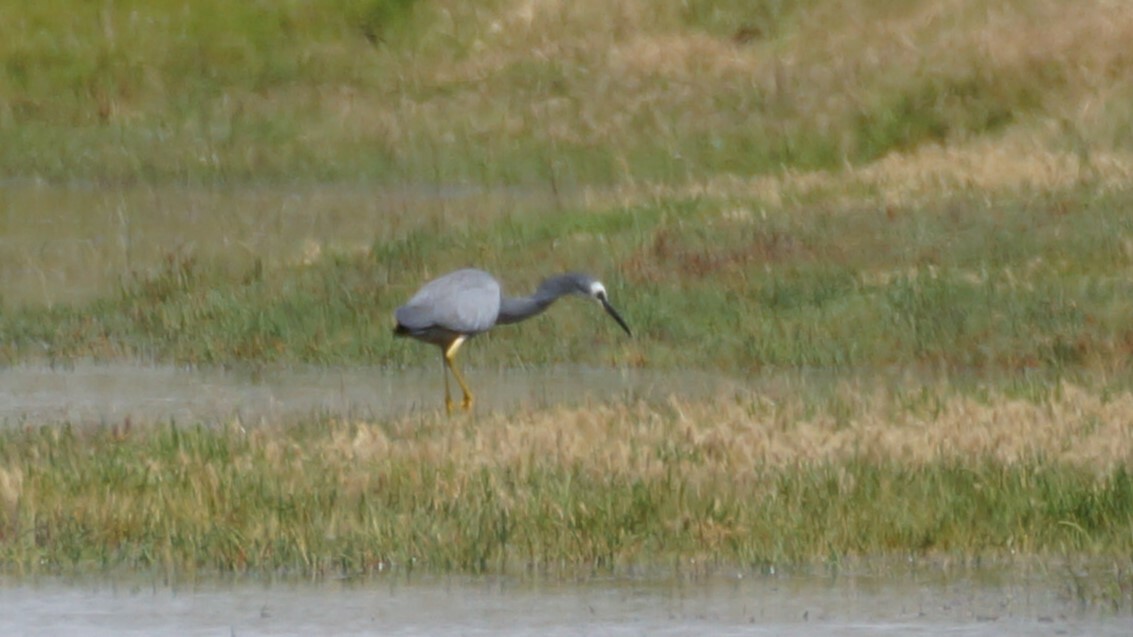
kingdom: Animalia
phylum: Chordata
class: Aves
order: Pelecaniformes
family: Ardeidae
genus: Egretta
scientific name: Egretta novaehollandiae
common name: White-faced heron
